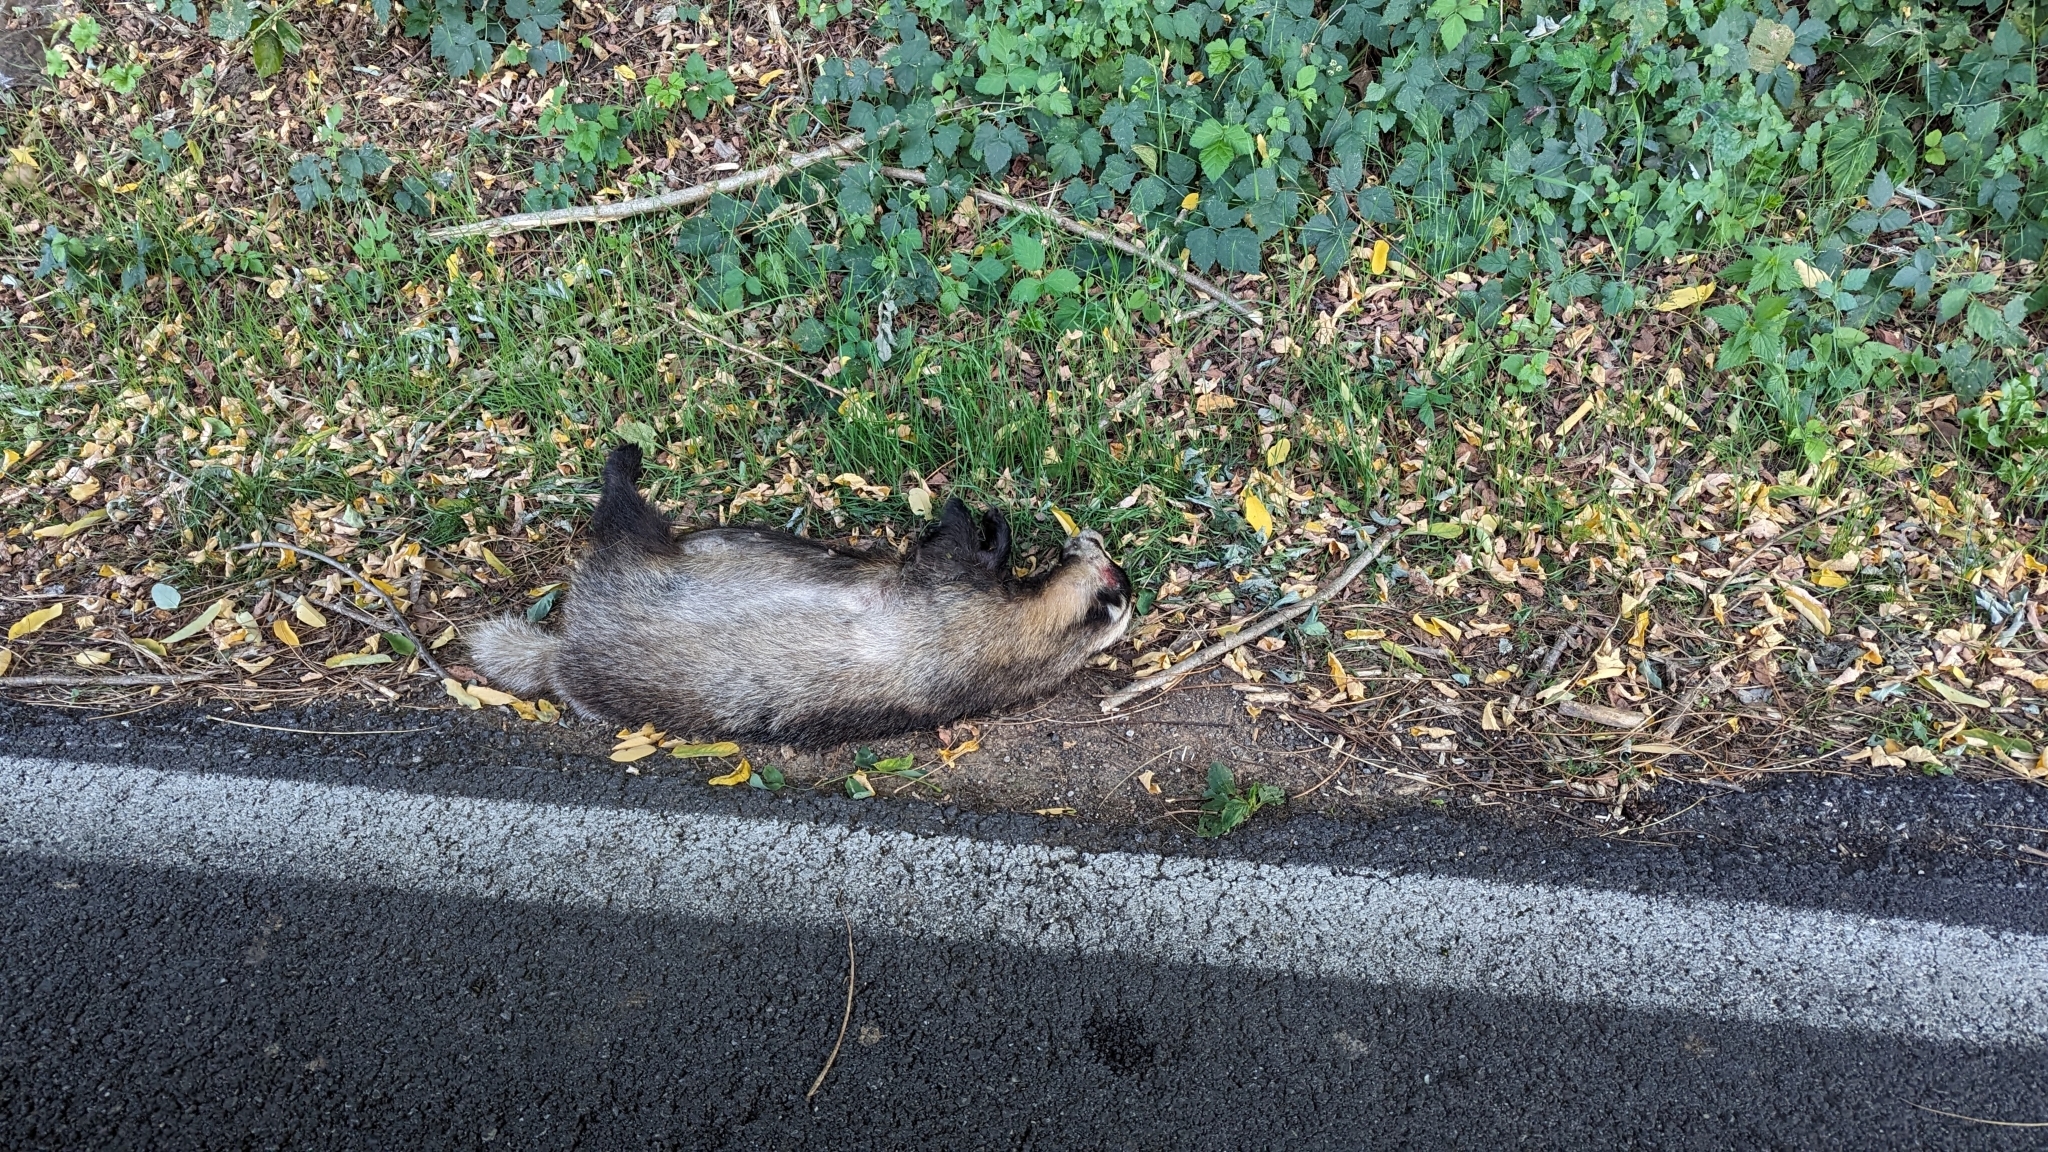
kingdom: Animalia
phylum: Chordata
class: Mammalia
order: Carnivora
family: Mustelidae
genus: Meles
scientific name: Meles meles
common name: Eurasian badger
